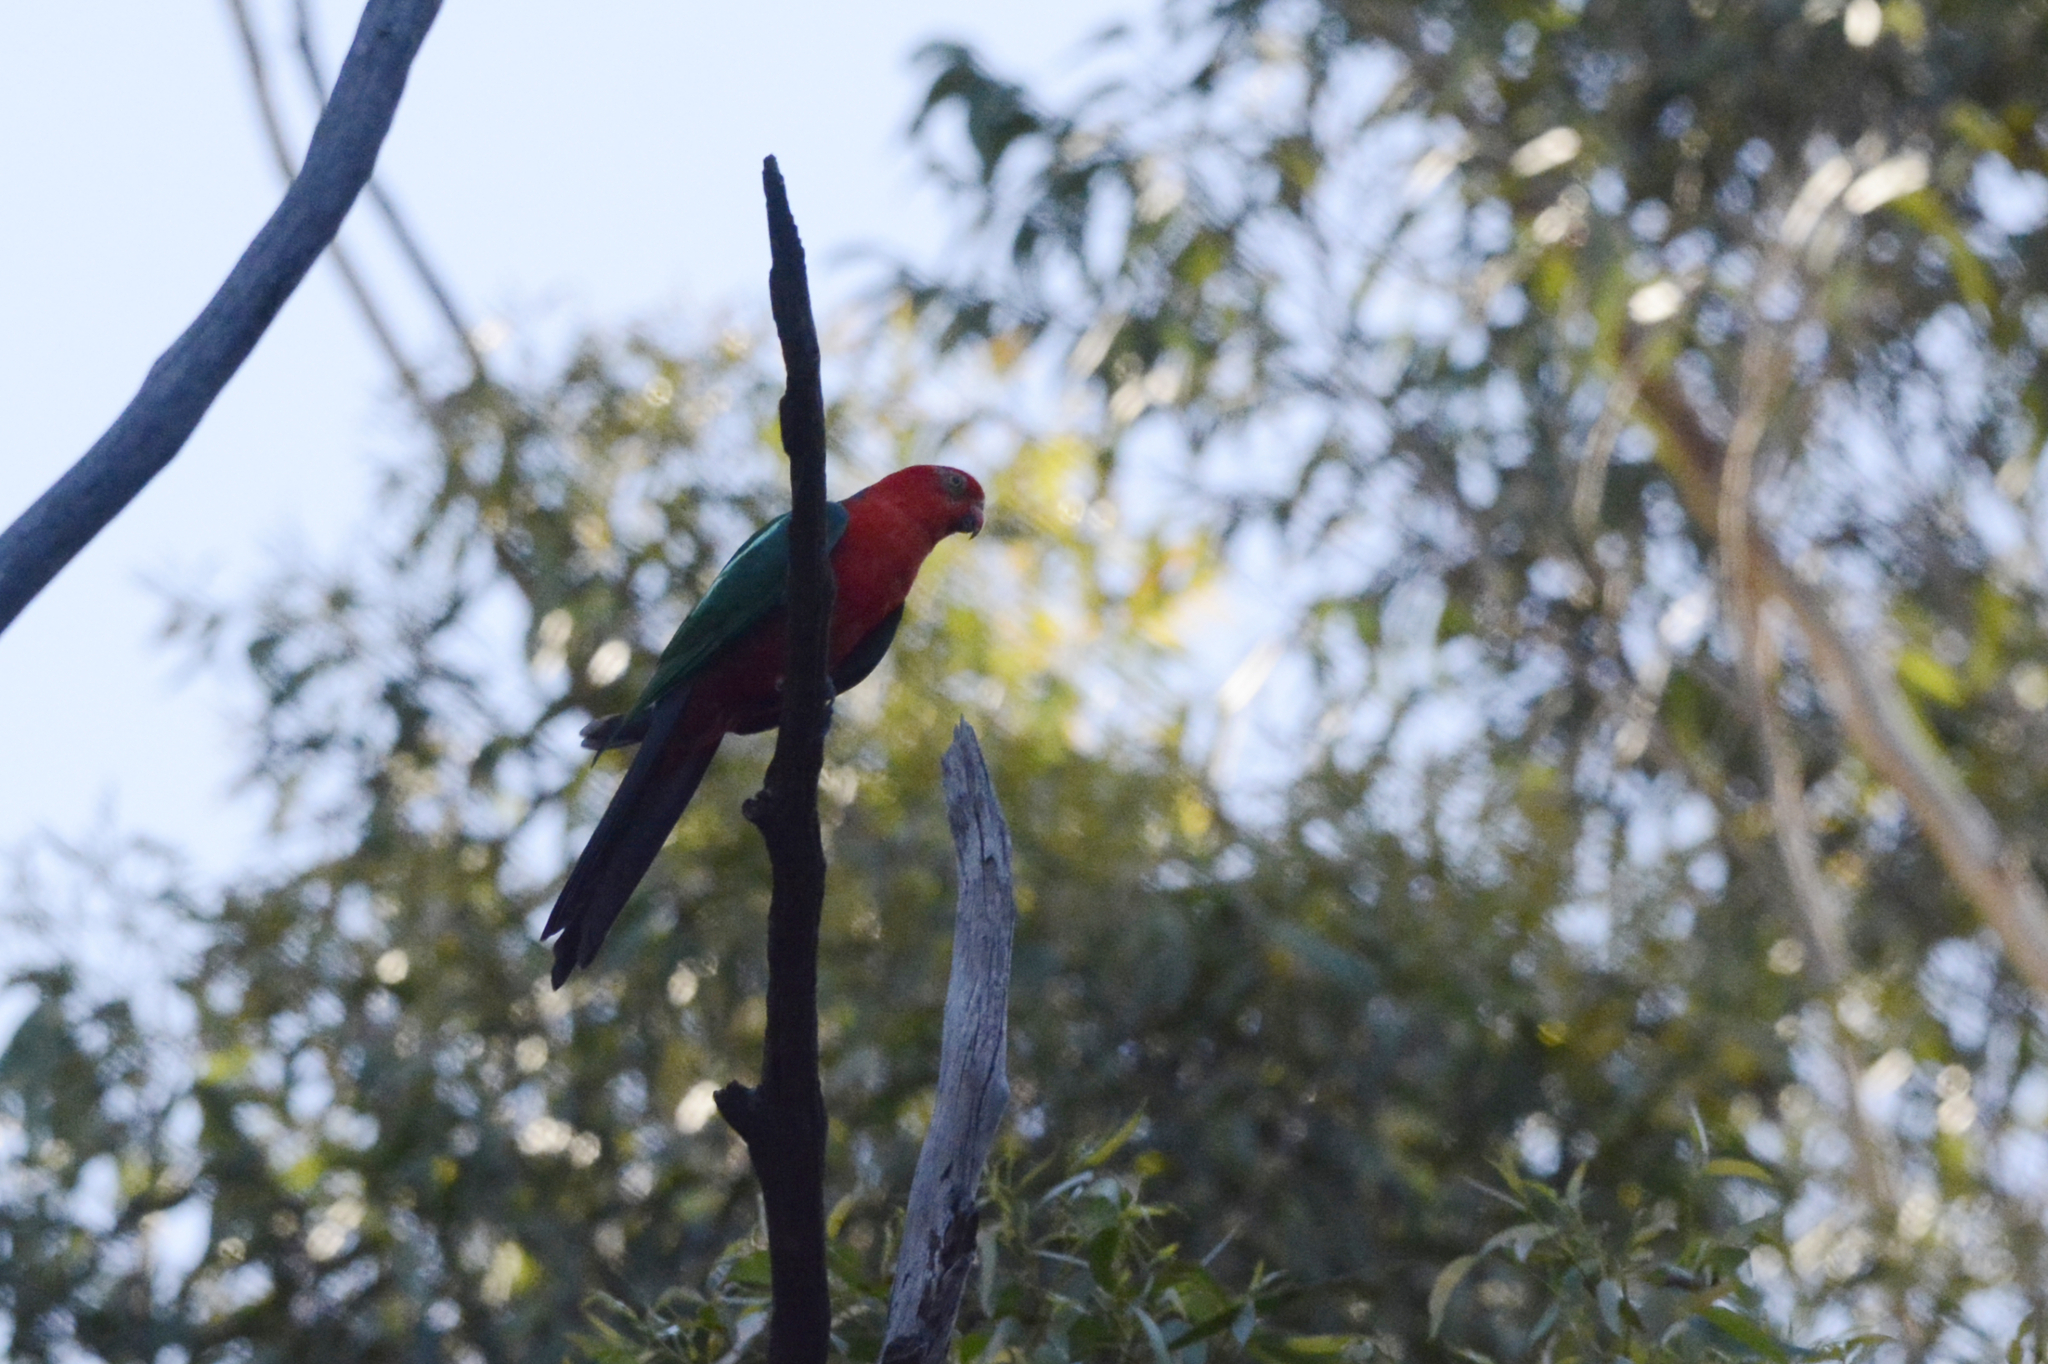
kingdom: Animalia
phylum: Chordata
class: Aves
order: Psittaciformes
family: Psittacidae
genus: Alisterus
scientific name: Alisterus scapularis
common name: Australian king parrot
